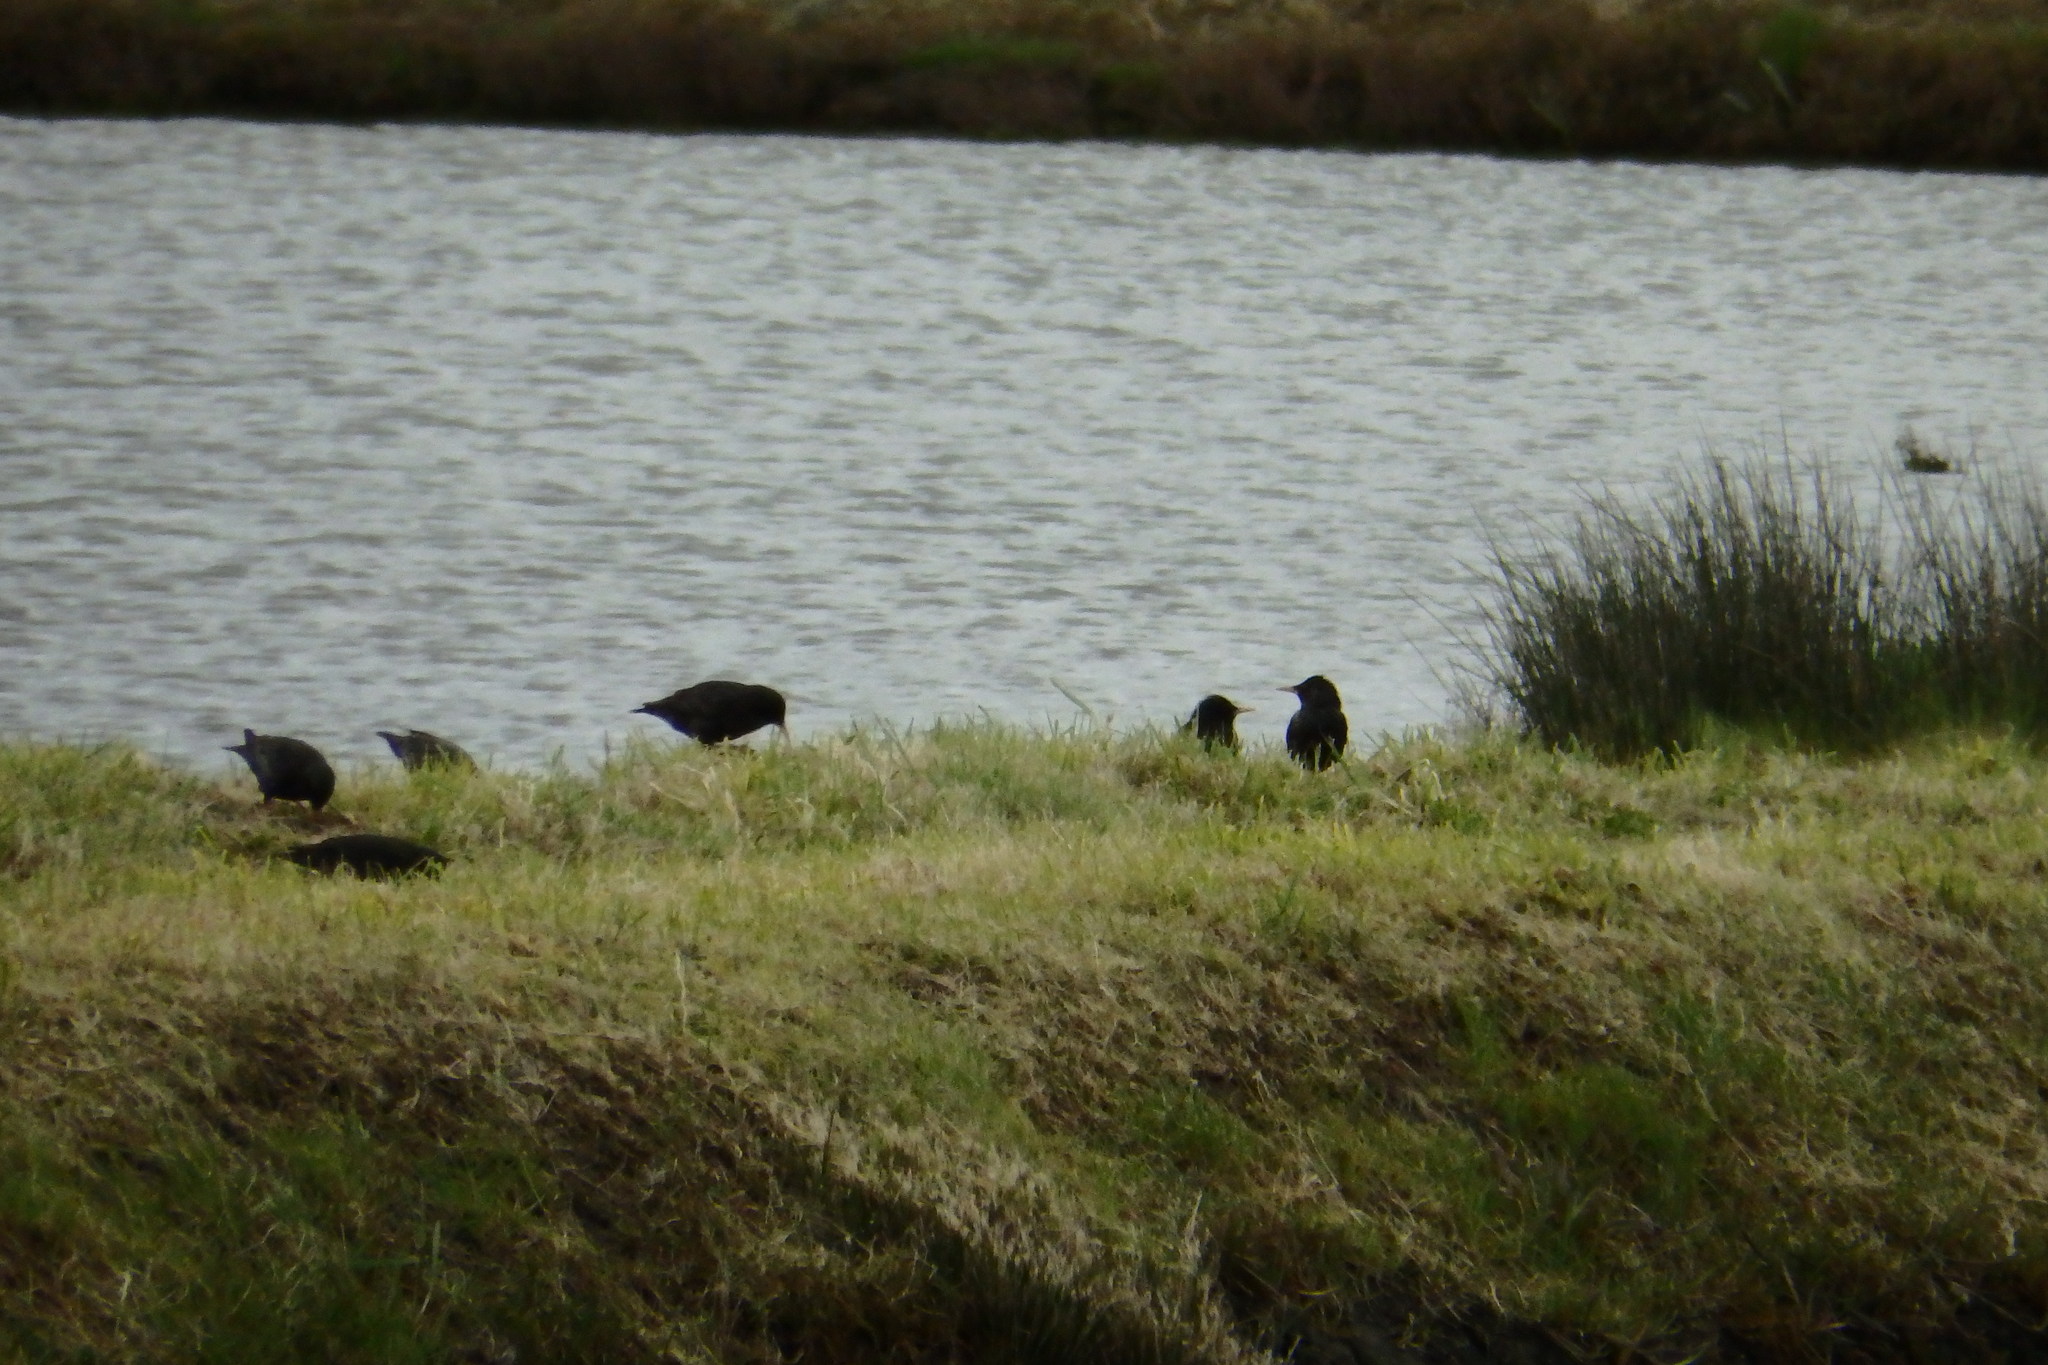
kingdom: Animalia
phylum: Chordata
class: Aves
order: Passeriformes
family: Sturnidae
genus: Sturnus
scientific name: Sturnus unicolor
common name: Spotless starling
